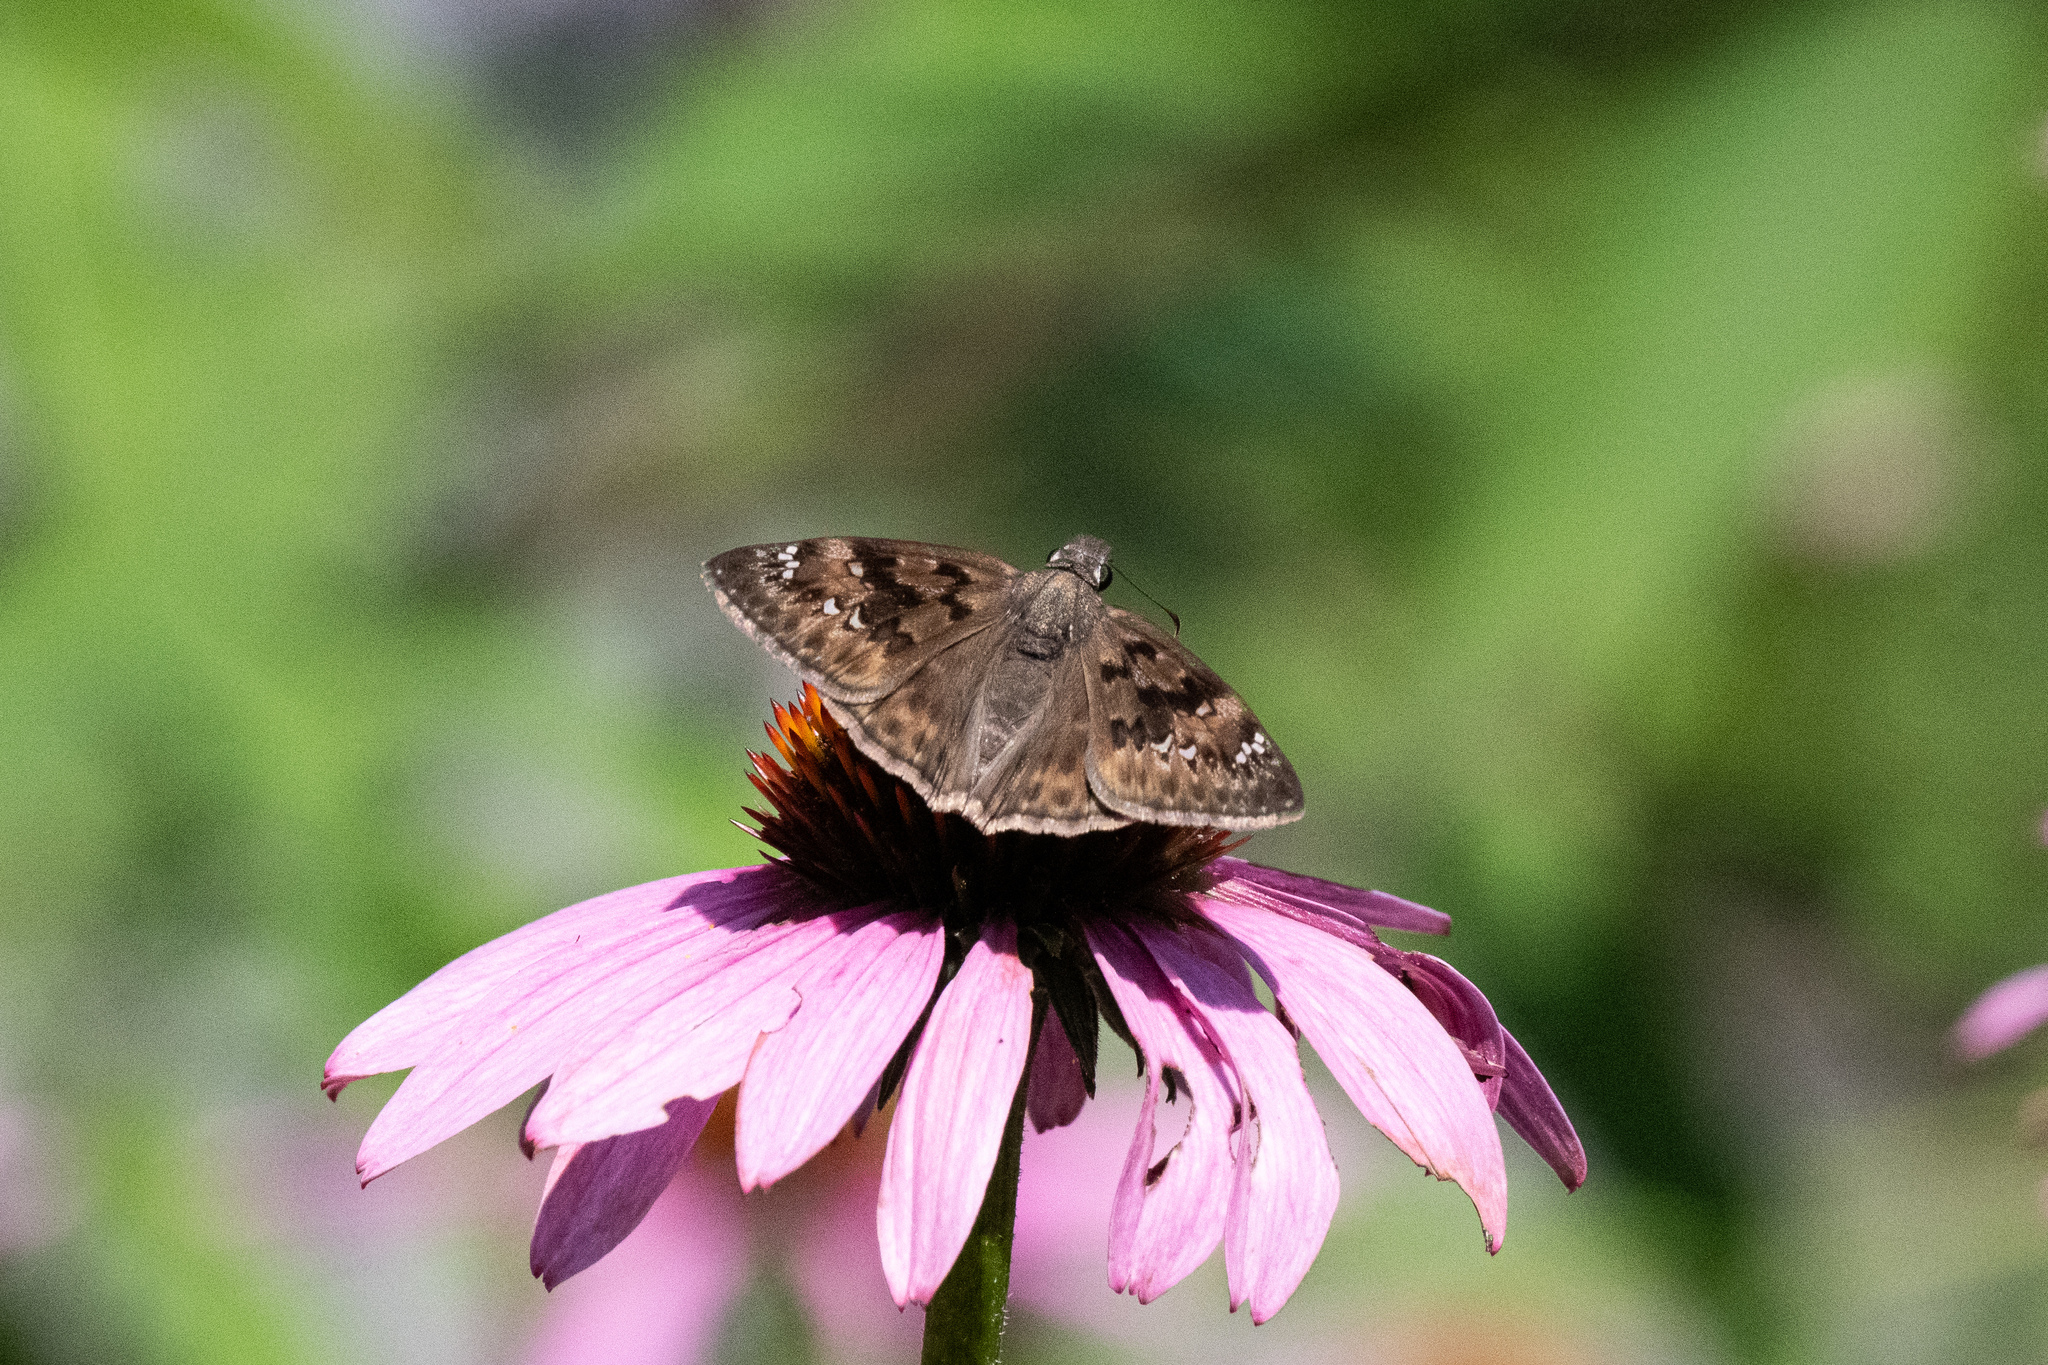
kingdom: Animalia
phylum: Arthropoda
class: Insecta
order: Lepidoptera
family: Hesperiidae
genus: Erynnis
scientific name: Erynnis horatius
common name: Horace's duskywing
